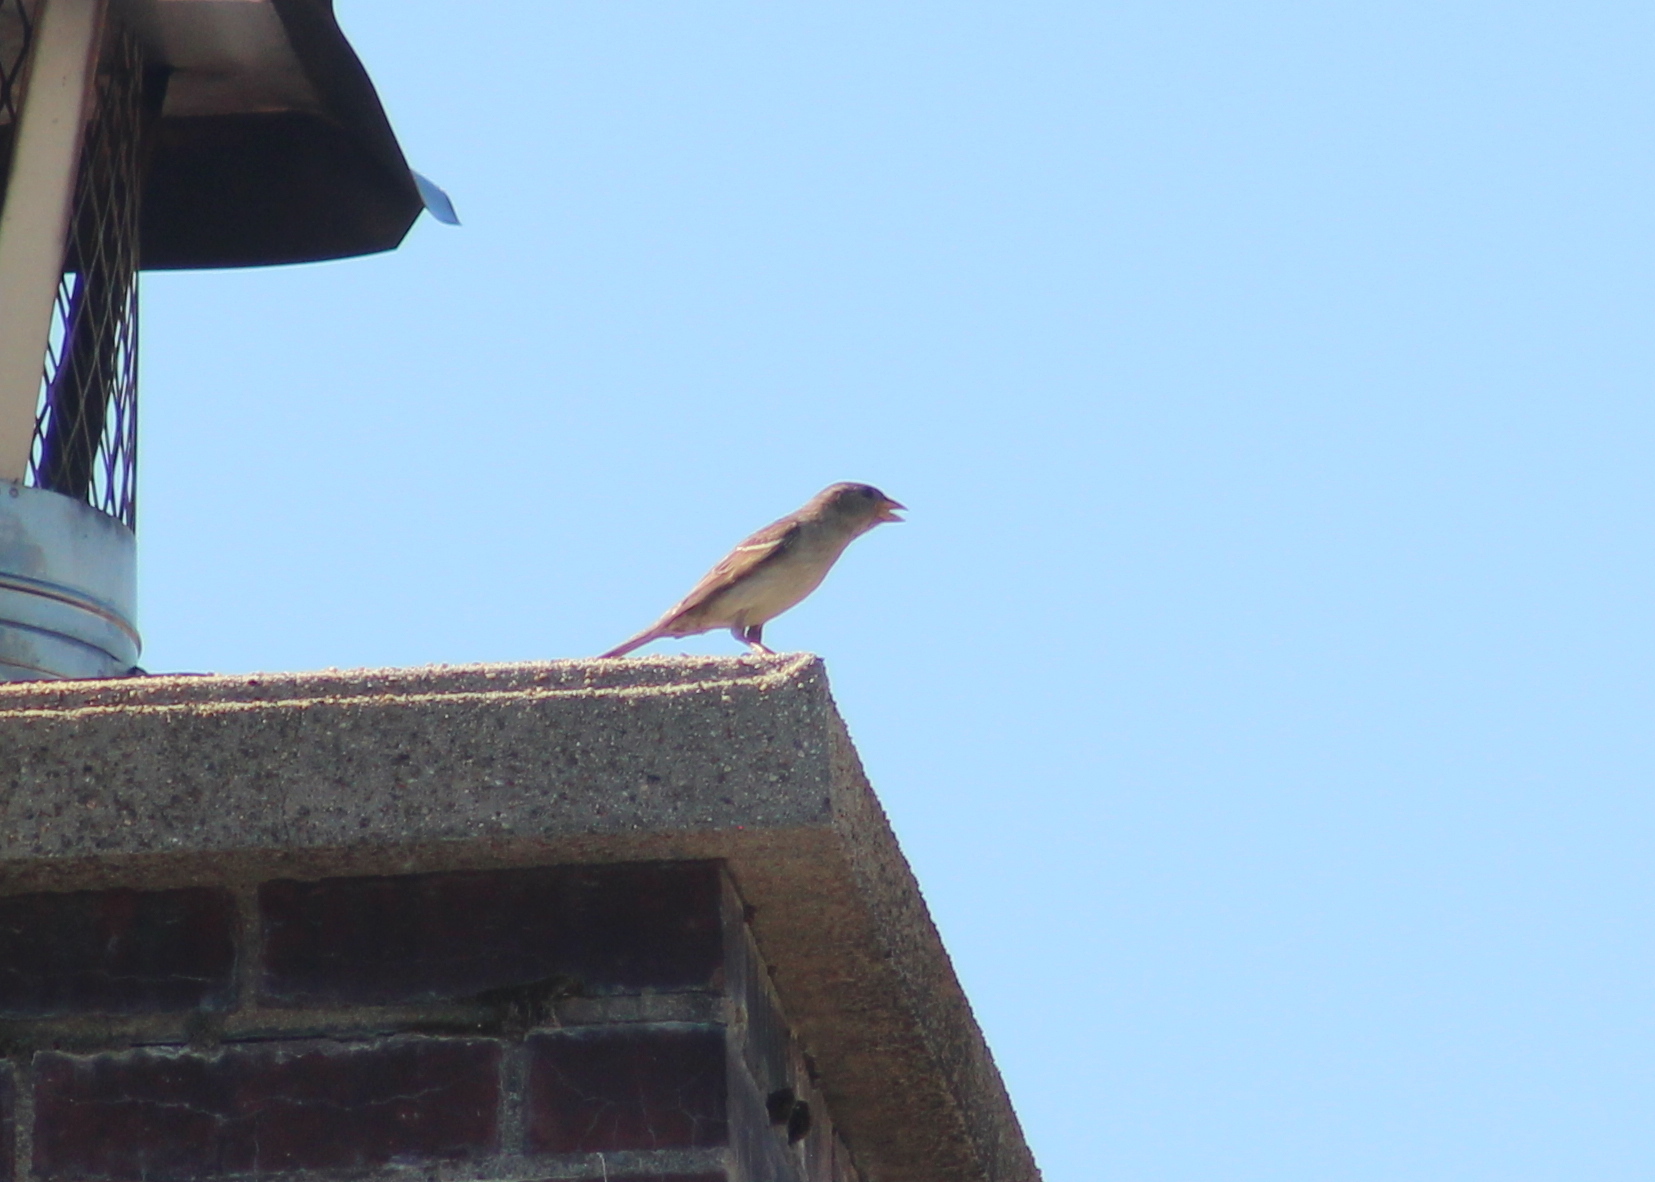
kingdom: Animalia
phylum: Chordata
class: Aves
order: Passeriformes
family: Passeridae
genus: Passer
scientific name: Passer domesticus
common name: House sparrow
